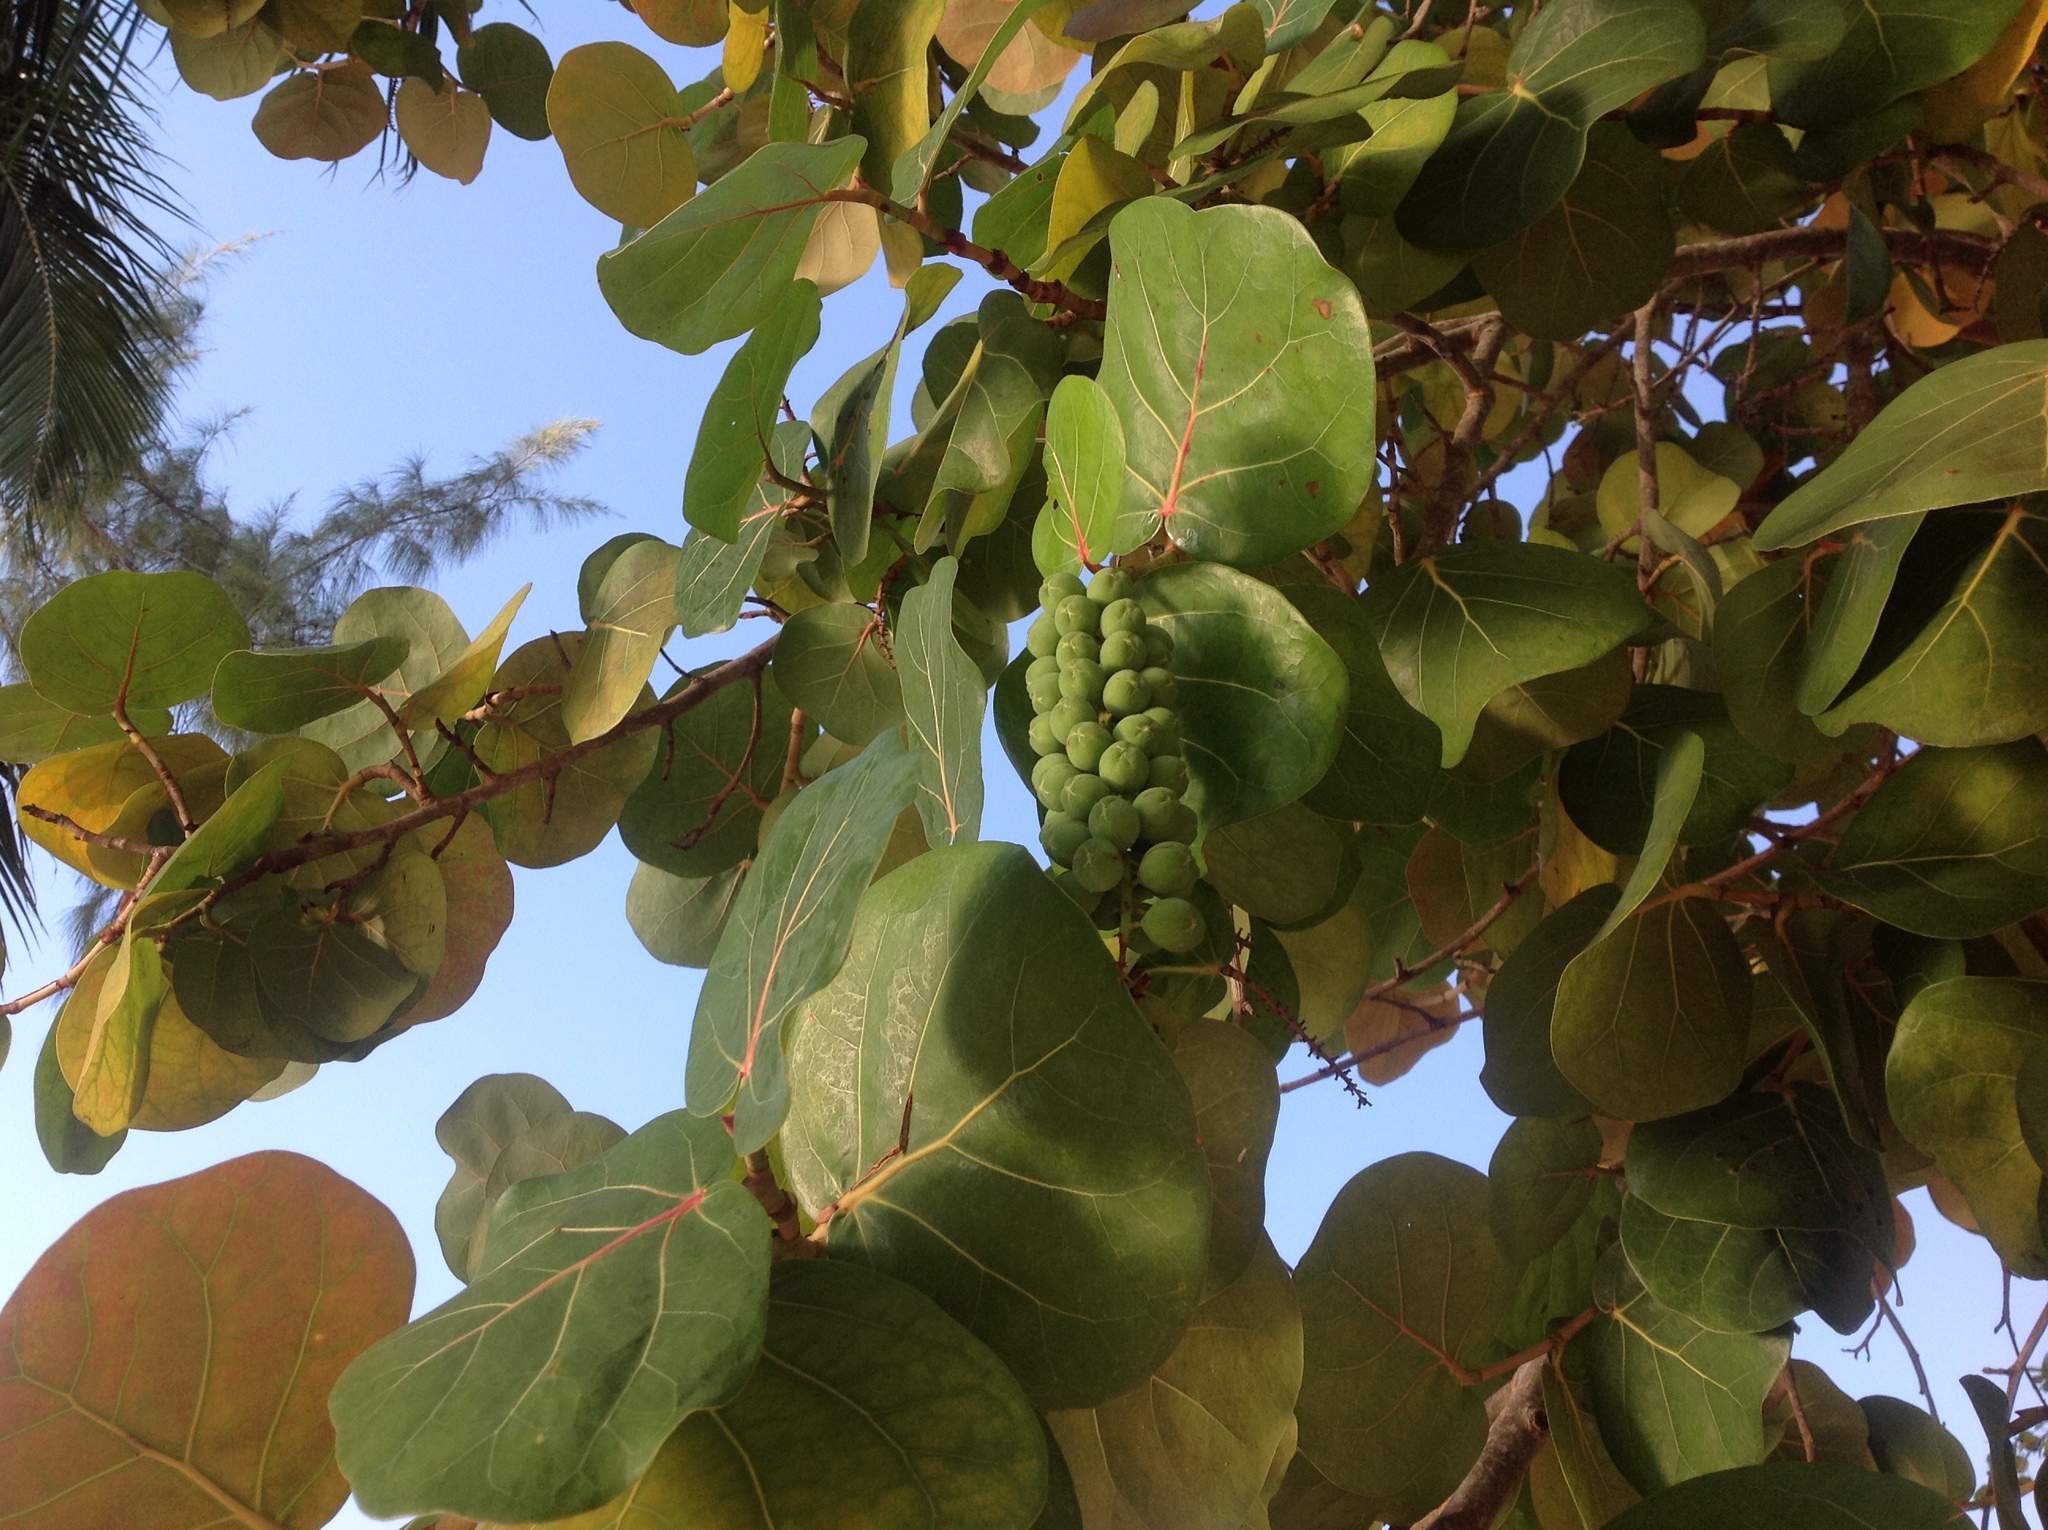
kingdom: Plantae
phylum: Tracheophyta
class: Magnoliopsida
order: Caryophyllales
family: Polygonaceae
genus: Coccoloba
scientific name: Coccoloba uvifera
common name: Seagrape
